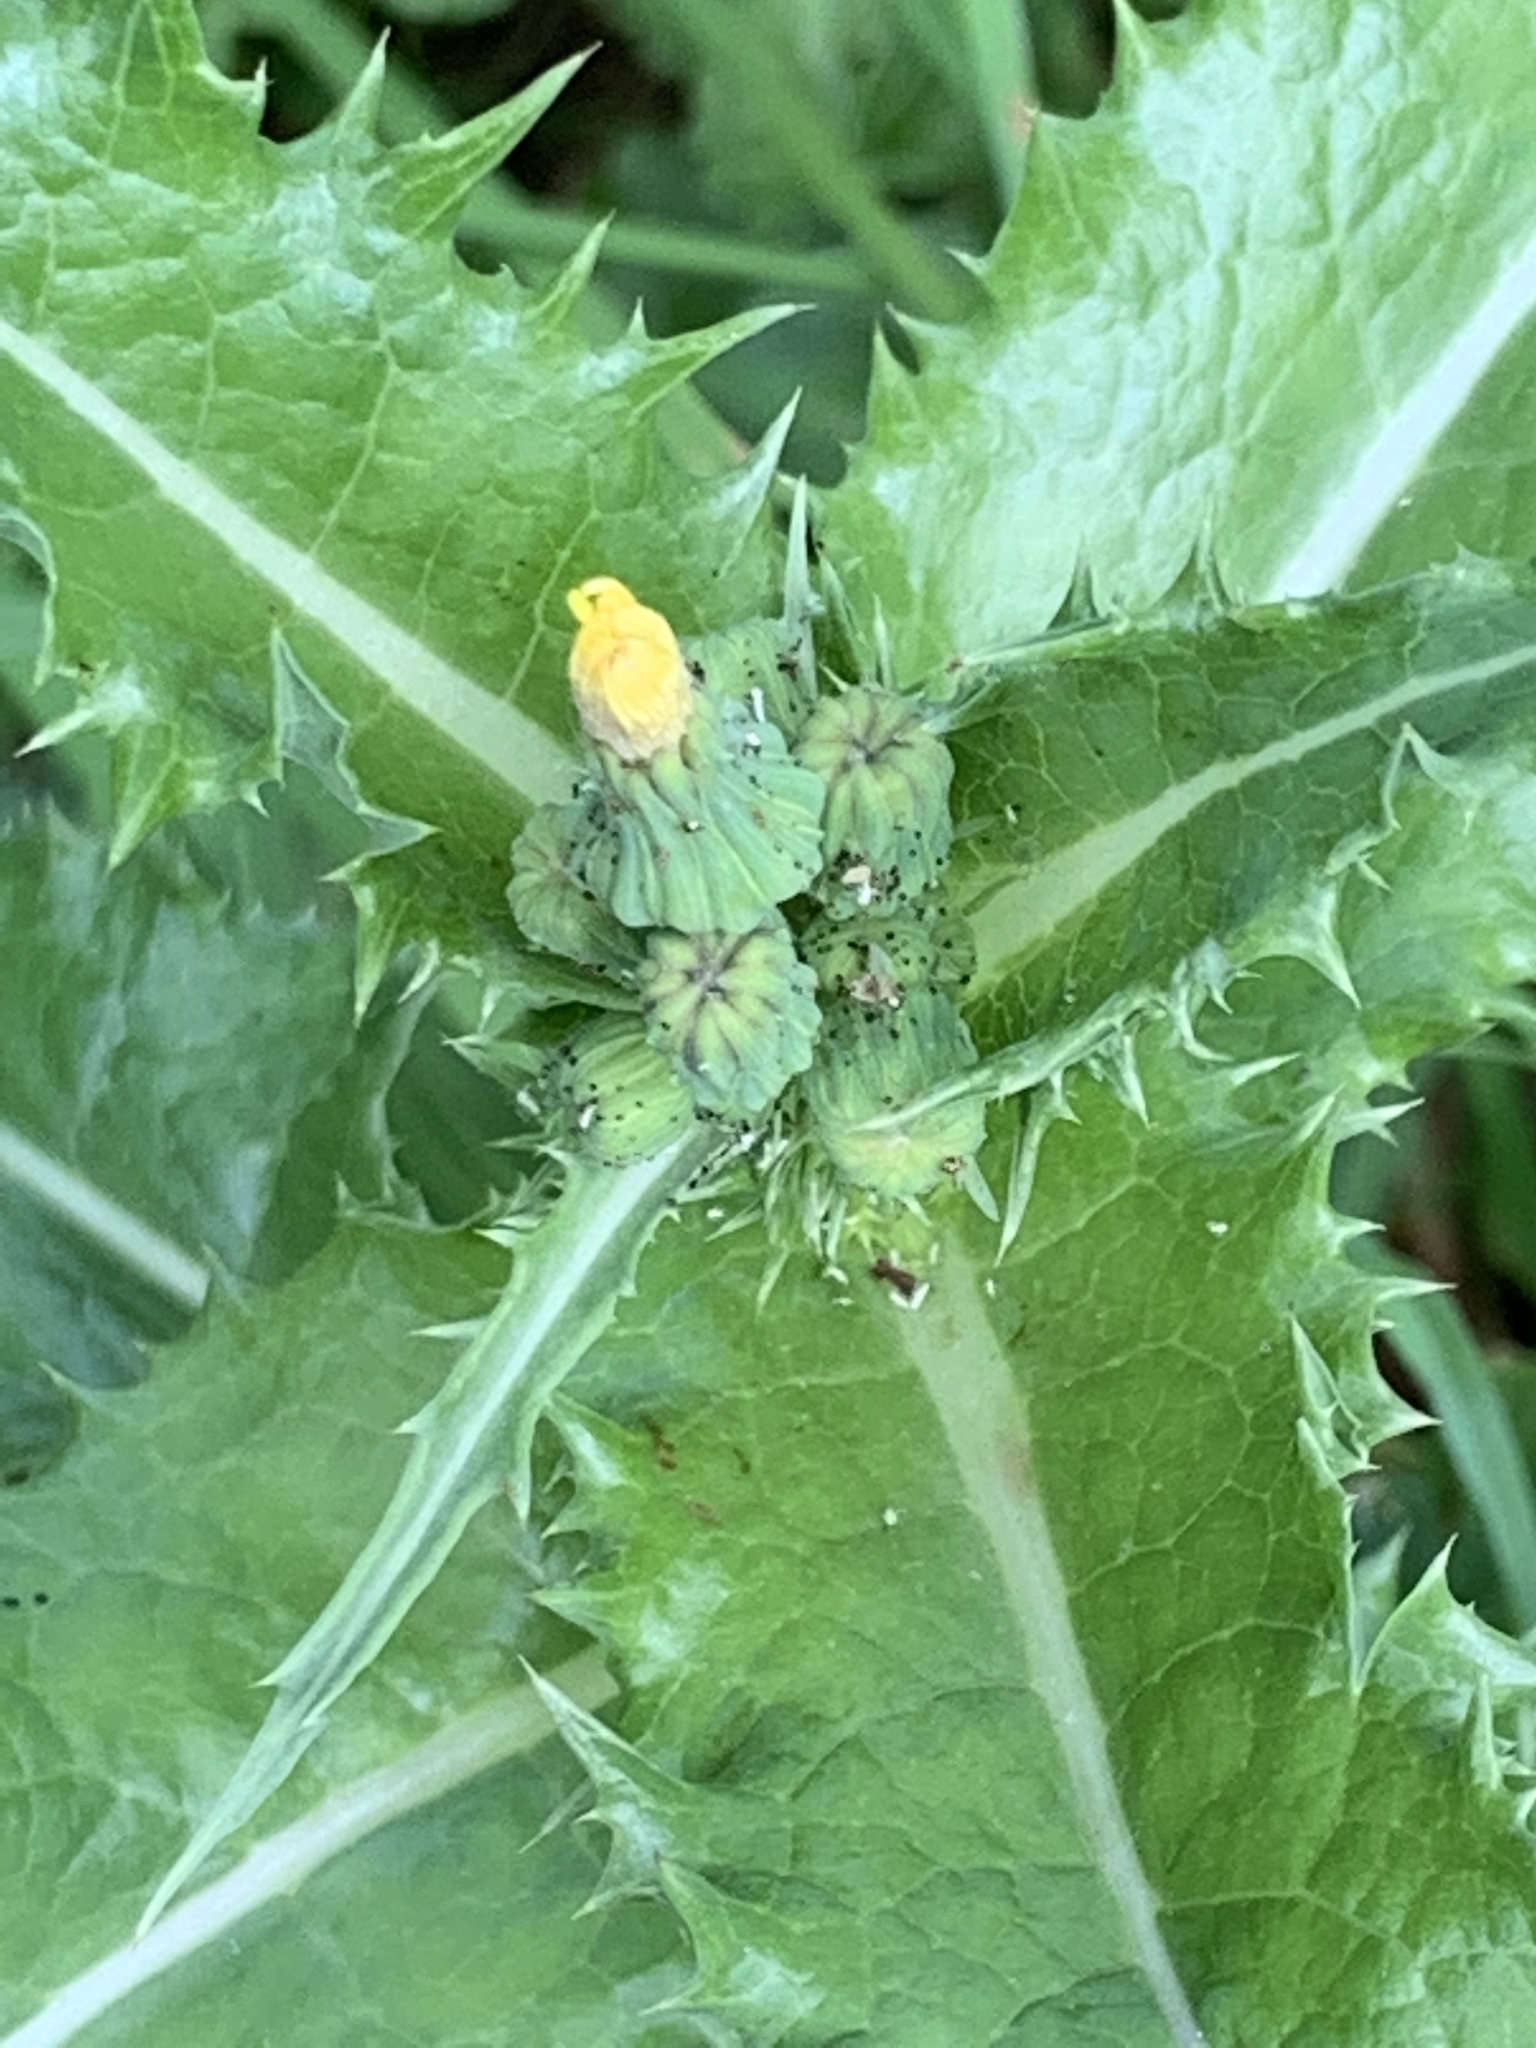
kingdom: Plantae
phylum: Tracheophyta
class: Magnoliopsida
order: Asterales
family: Asteraceae
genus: Sonchus
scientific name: Sonchus asper
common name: Prickly sow-thistle
